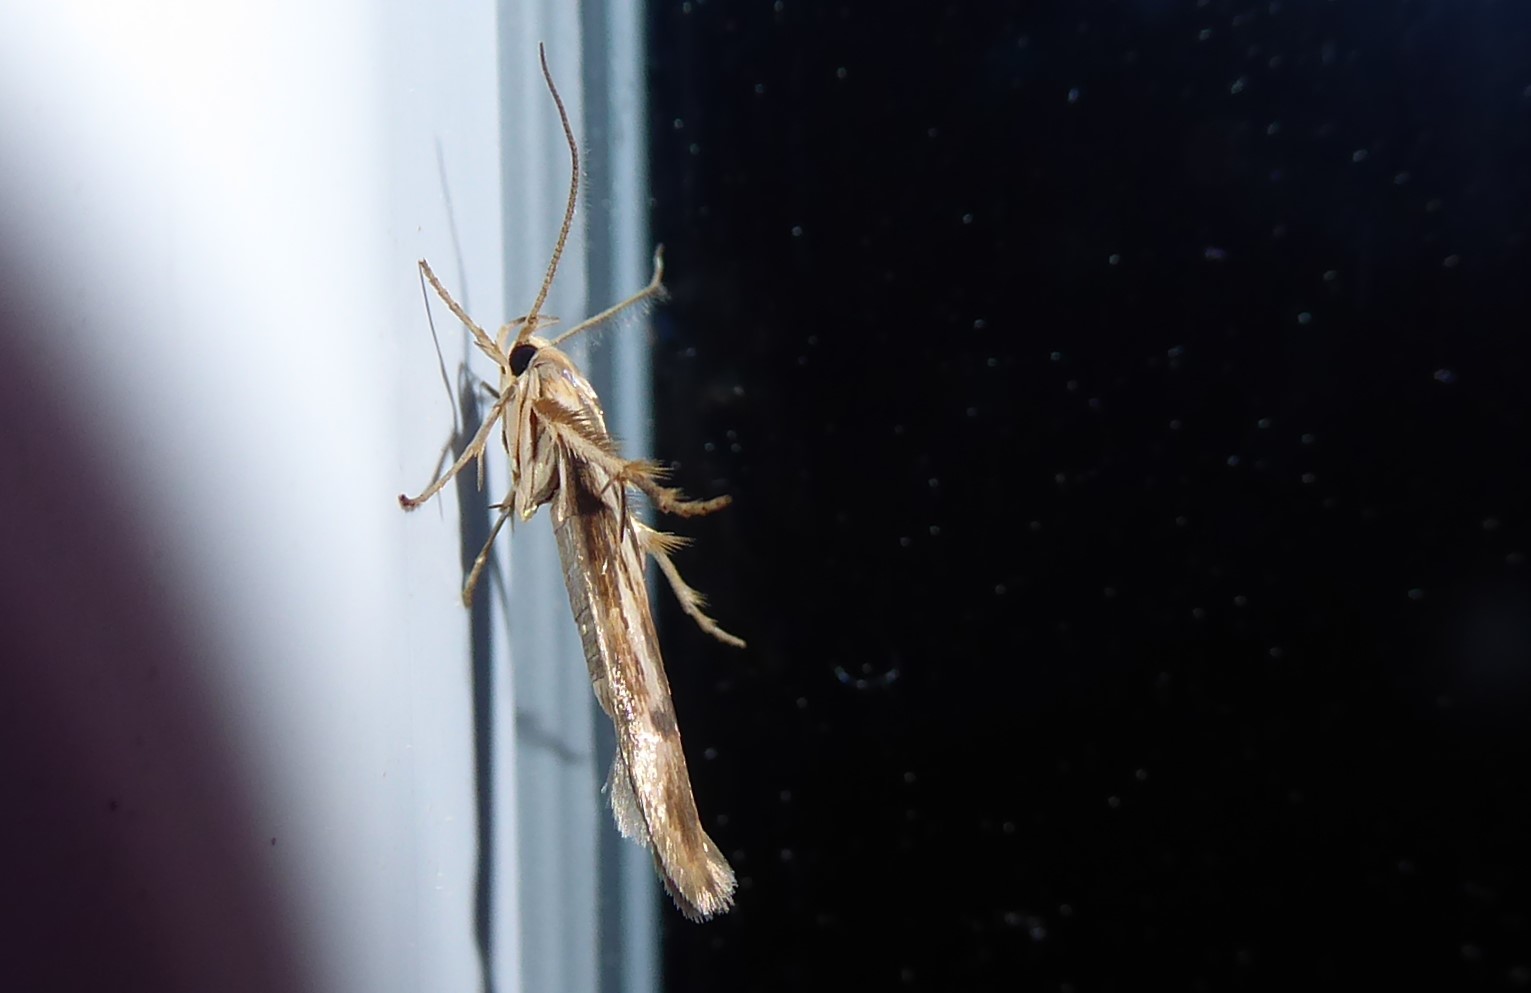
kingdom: Animalia
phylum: Arthropoda
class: Insecta
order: Lepidoptera
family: Stathmopodidae
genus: Stathmopoda
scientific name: Stathmopoda aposema
